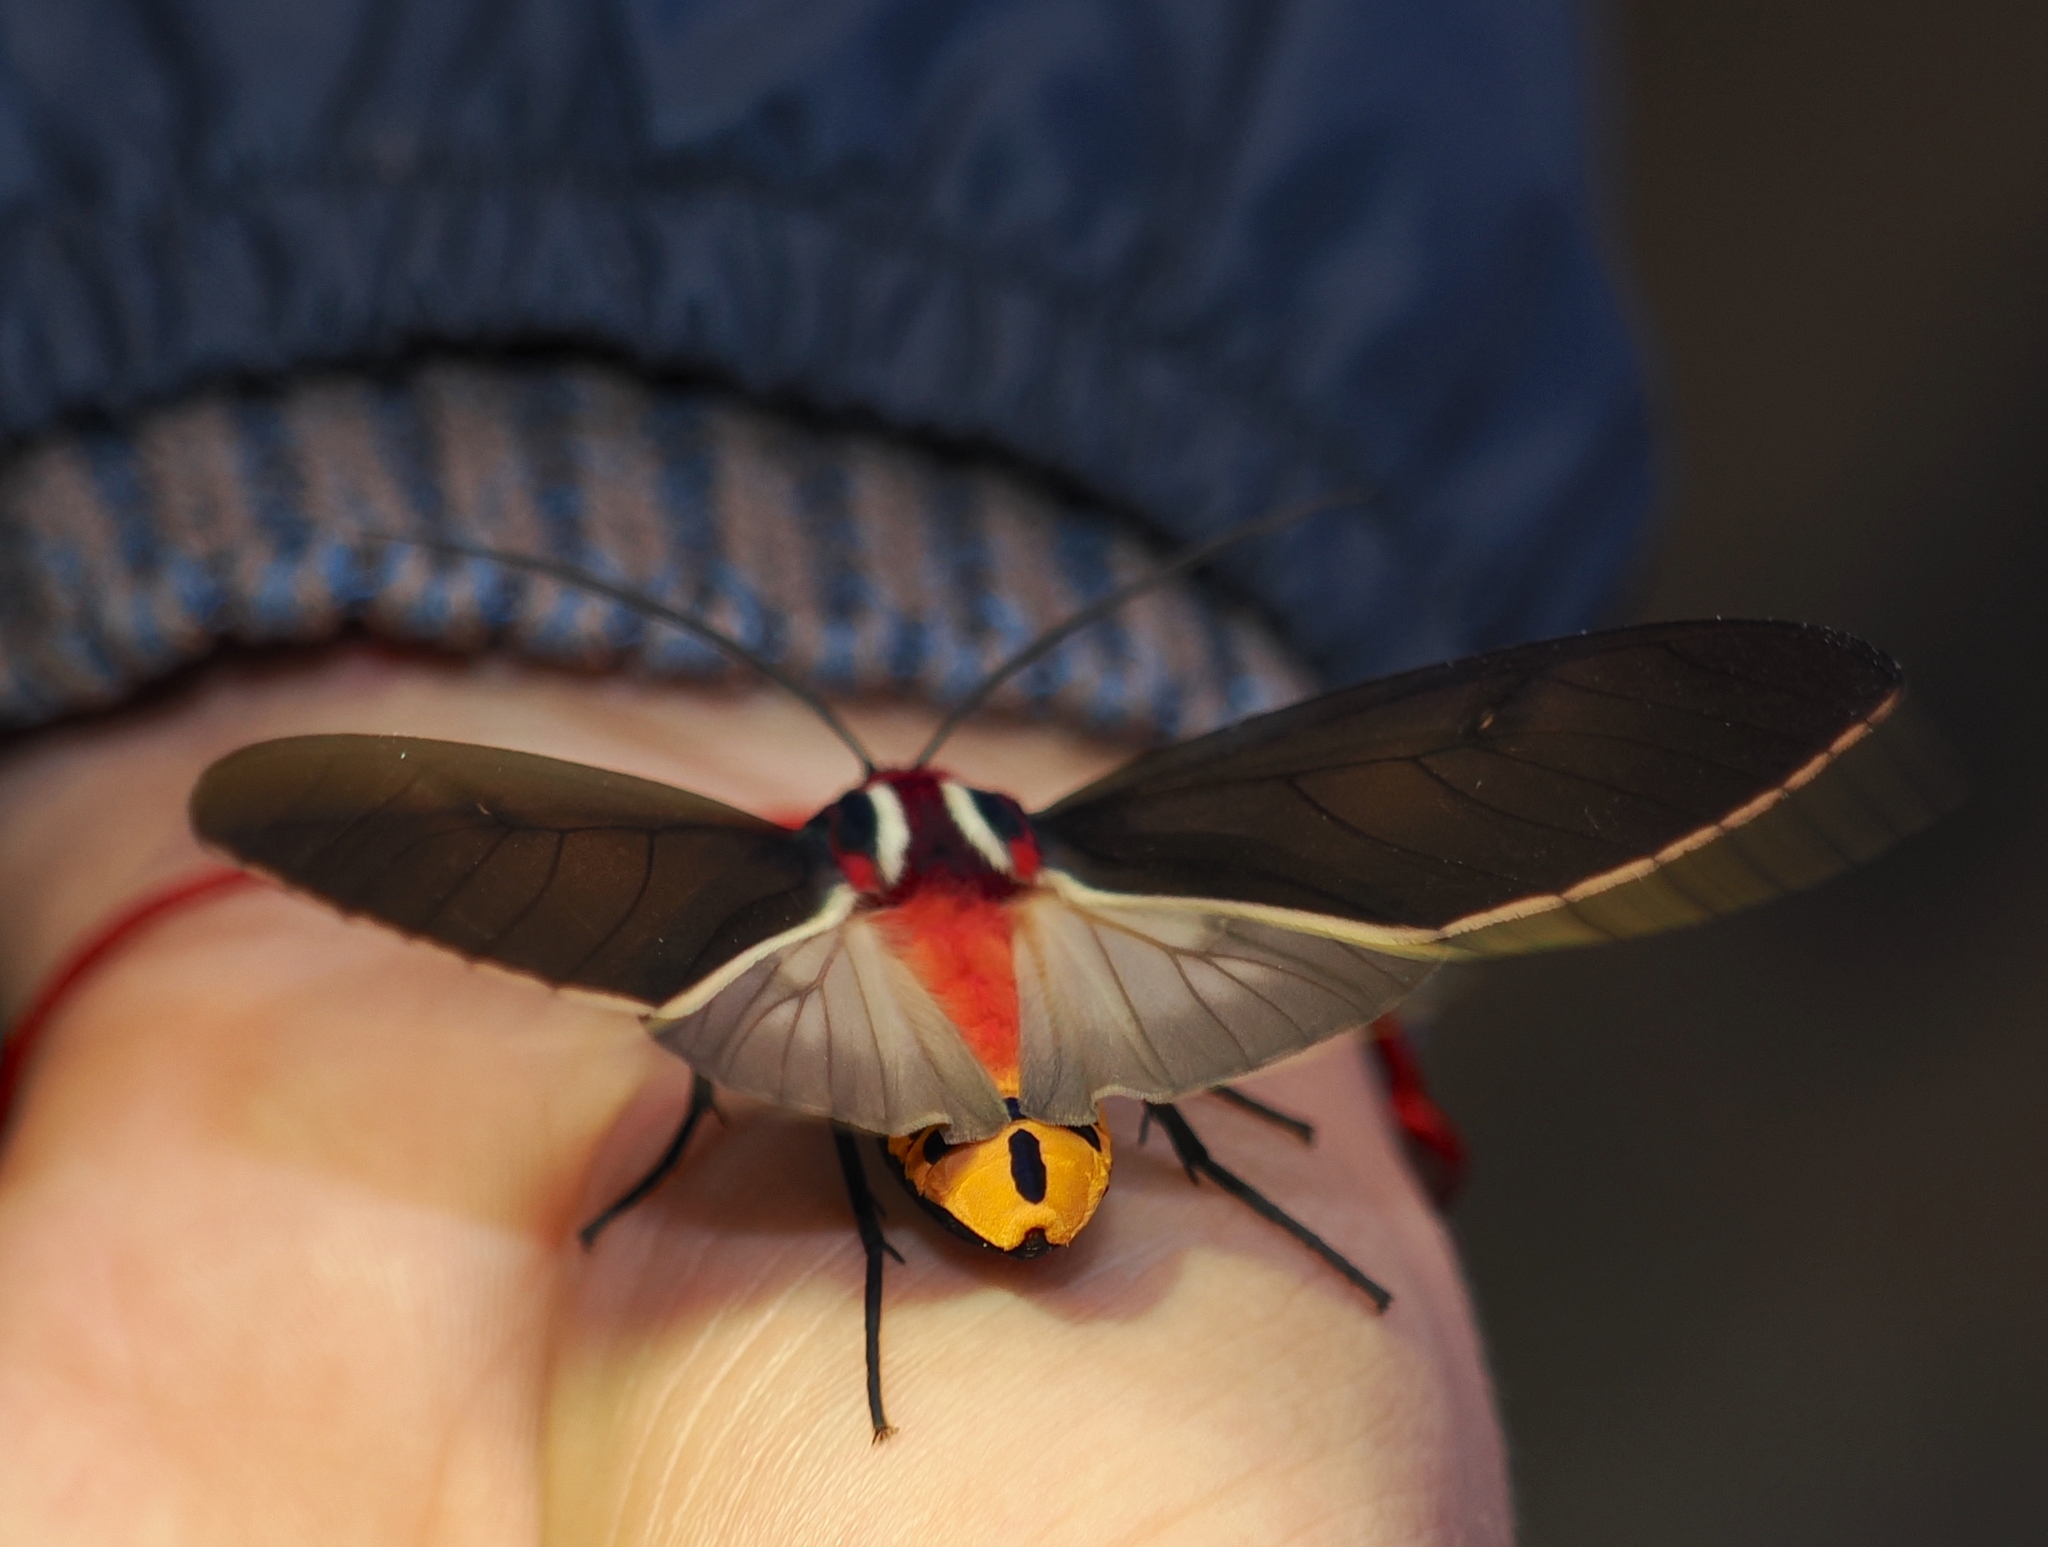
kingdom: Animalia
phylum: Arthropoda
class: Insecta
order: Lepidoptera
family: Erebidae
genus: Amastus
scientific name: Amastus episcotosia
